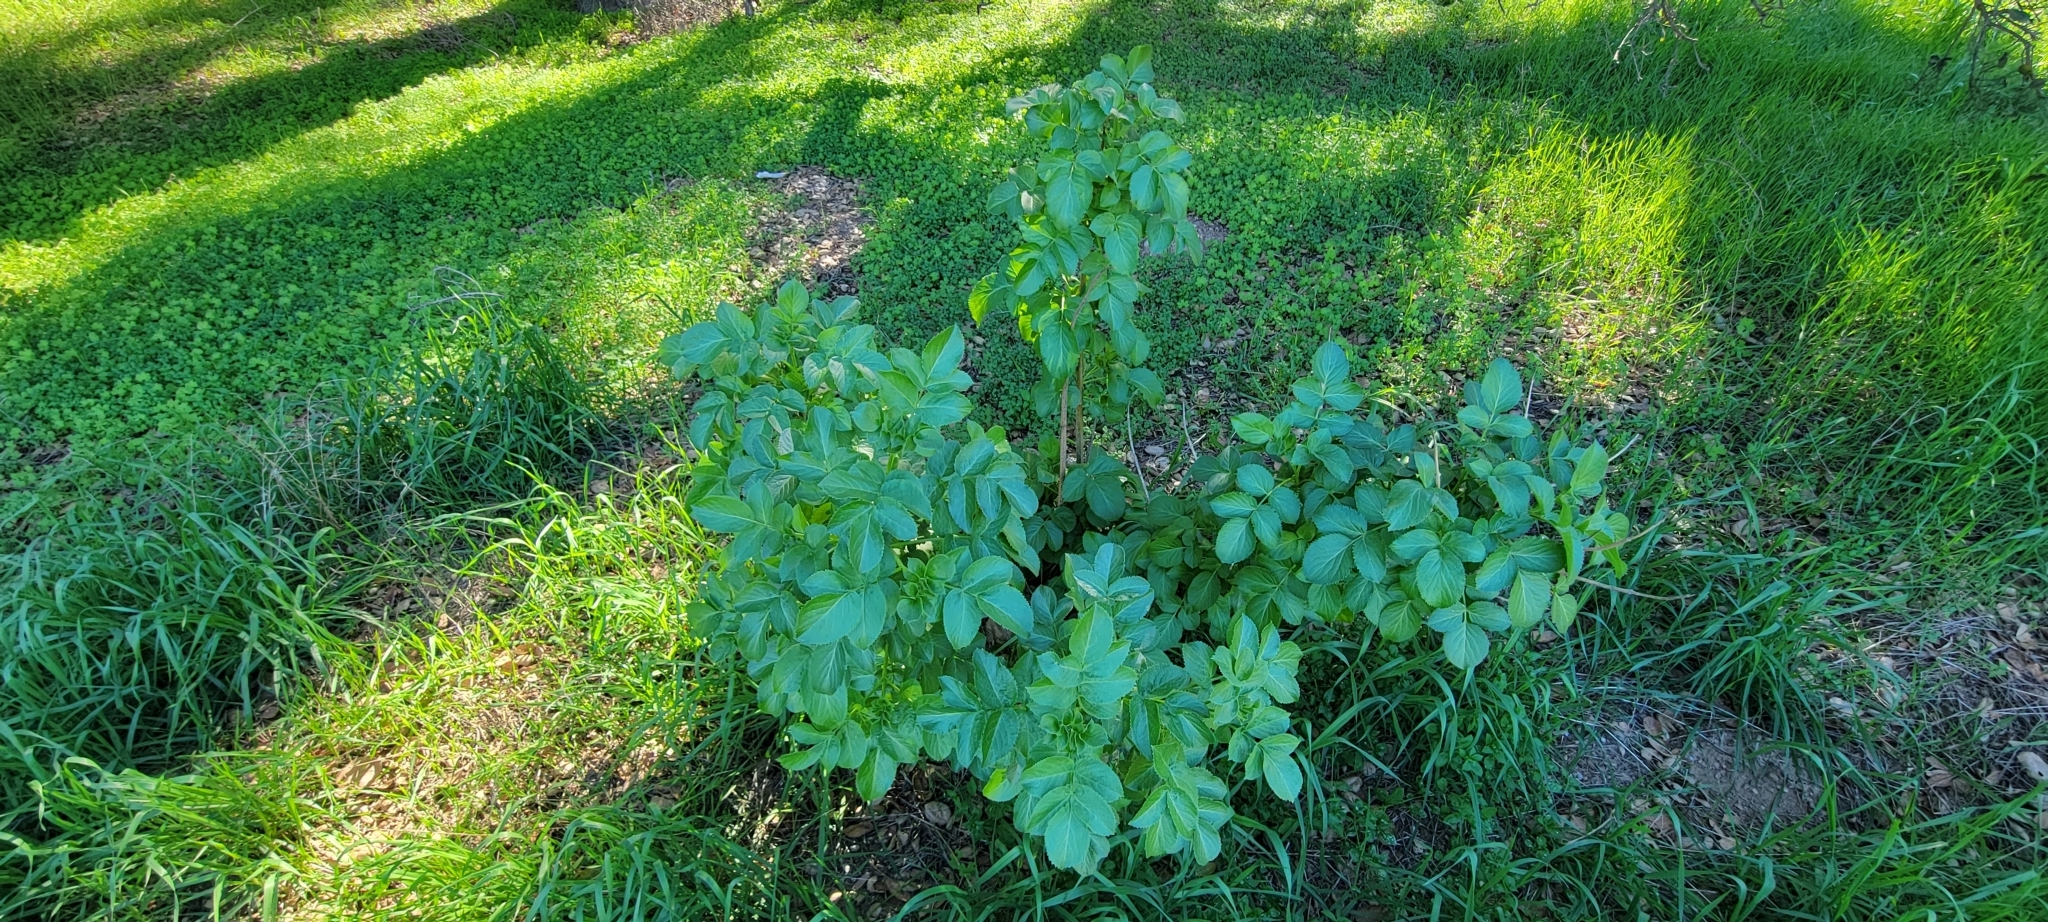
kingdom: Plantae
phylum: Tracheophyta
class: Magnoliopsida
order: Dipsacales
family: Viburnaceae
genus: Sambucus
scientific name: Sambucus cerulea
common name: Blue elder
